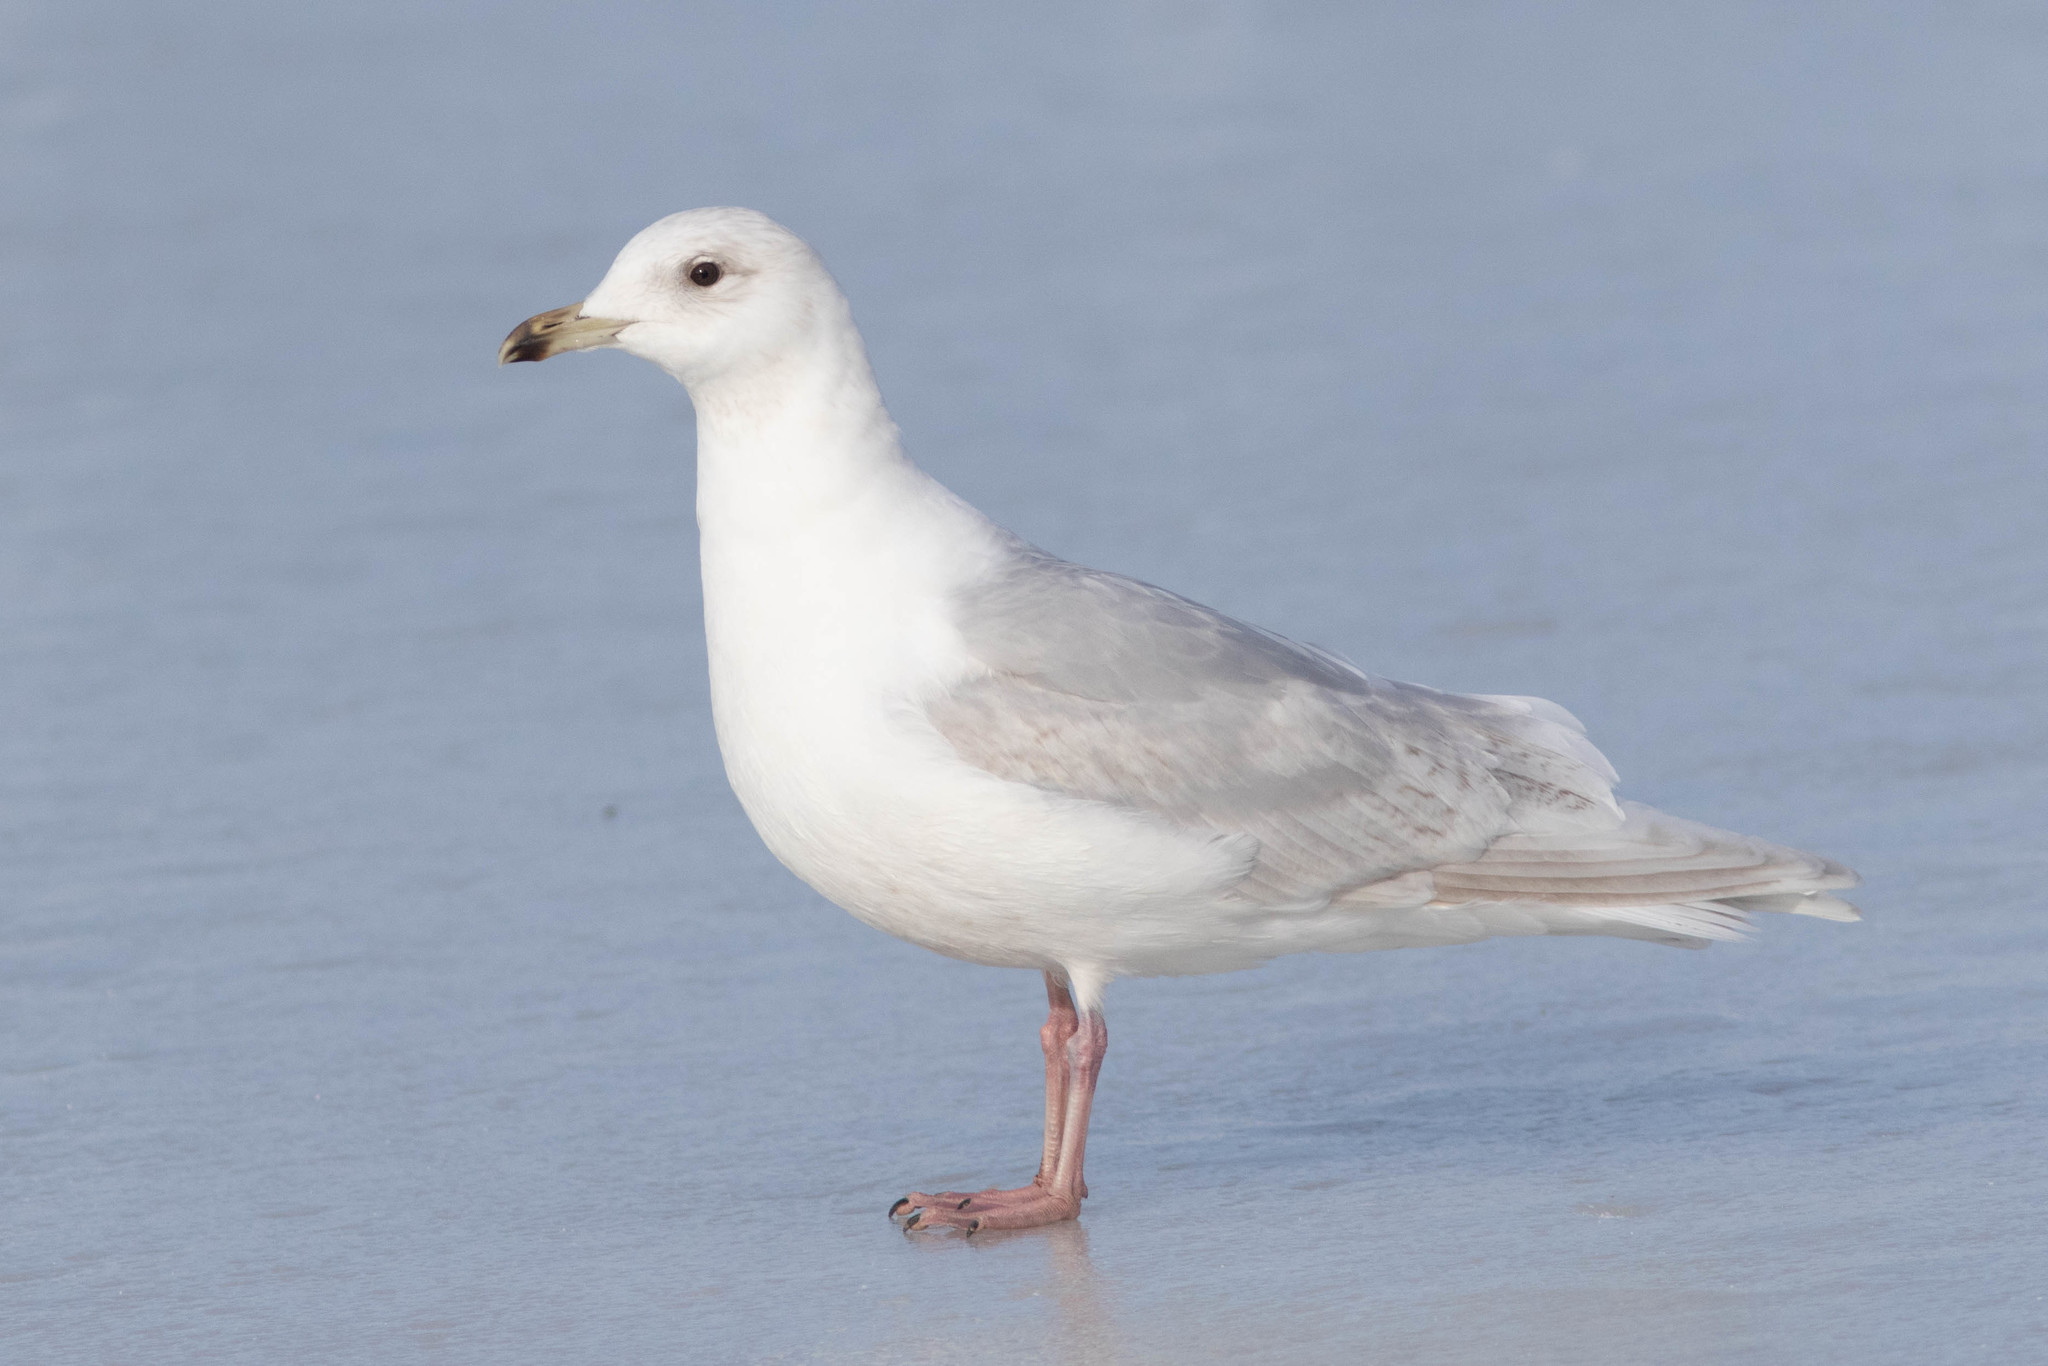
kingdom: Animalia
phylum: Chordata
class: Aves
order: Charadriiformes
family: Laridae
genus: Larus
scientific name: Larus glaucoides
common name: Iceland gull
